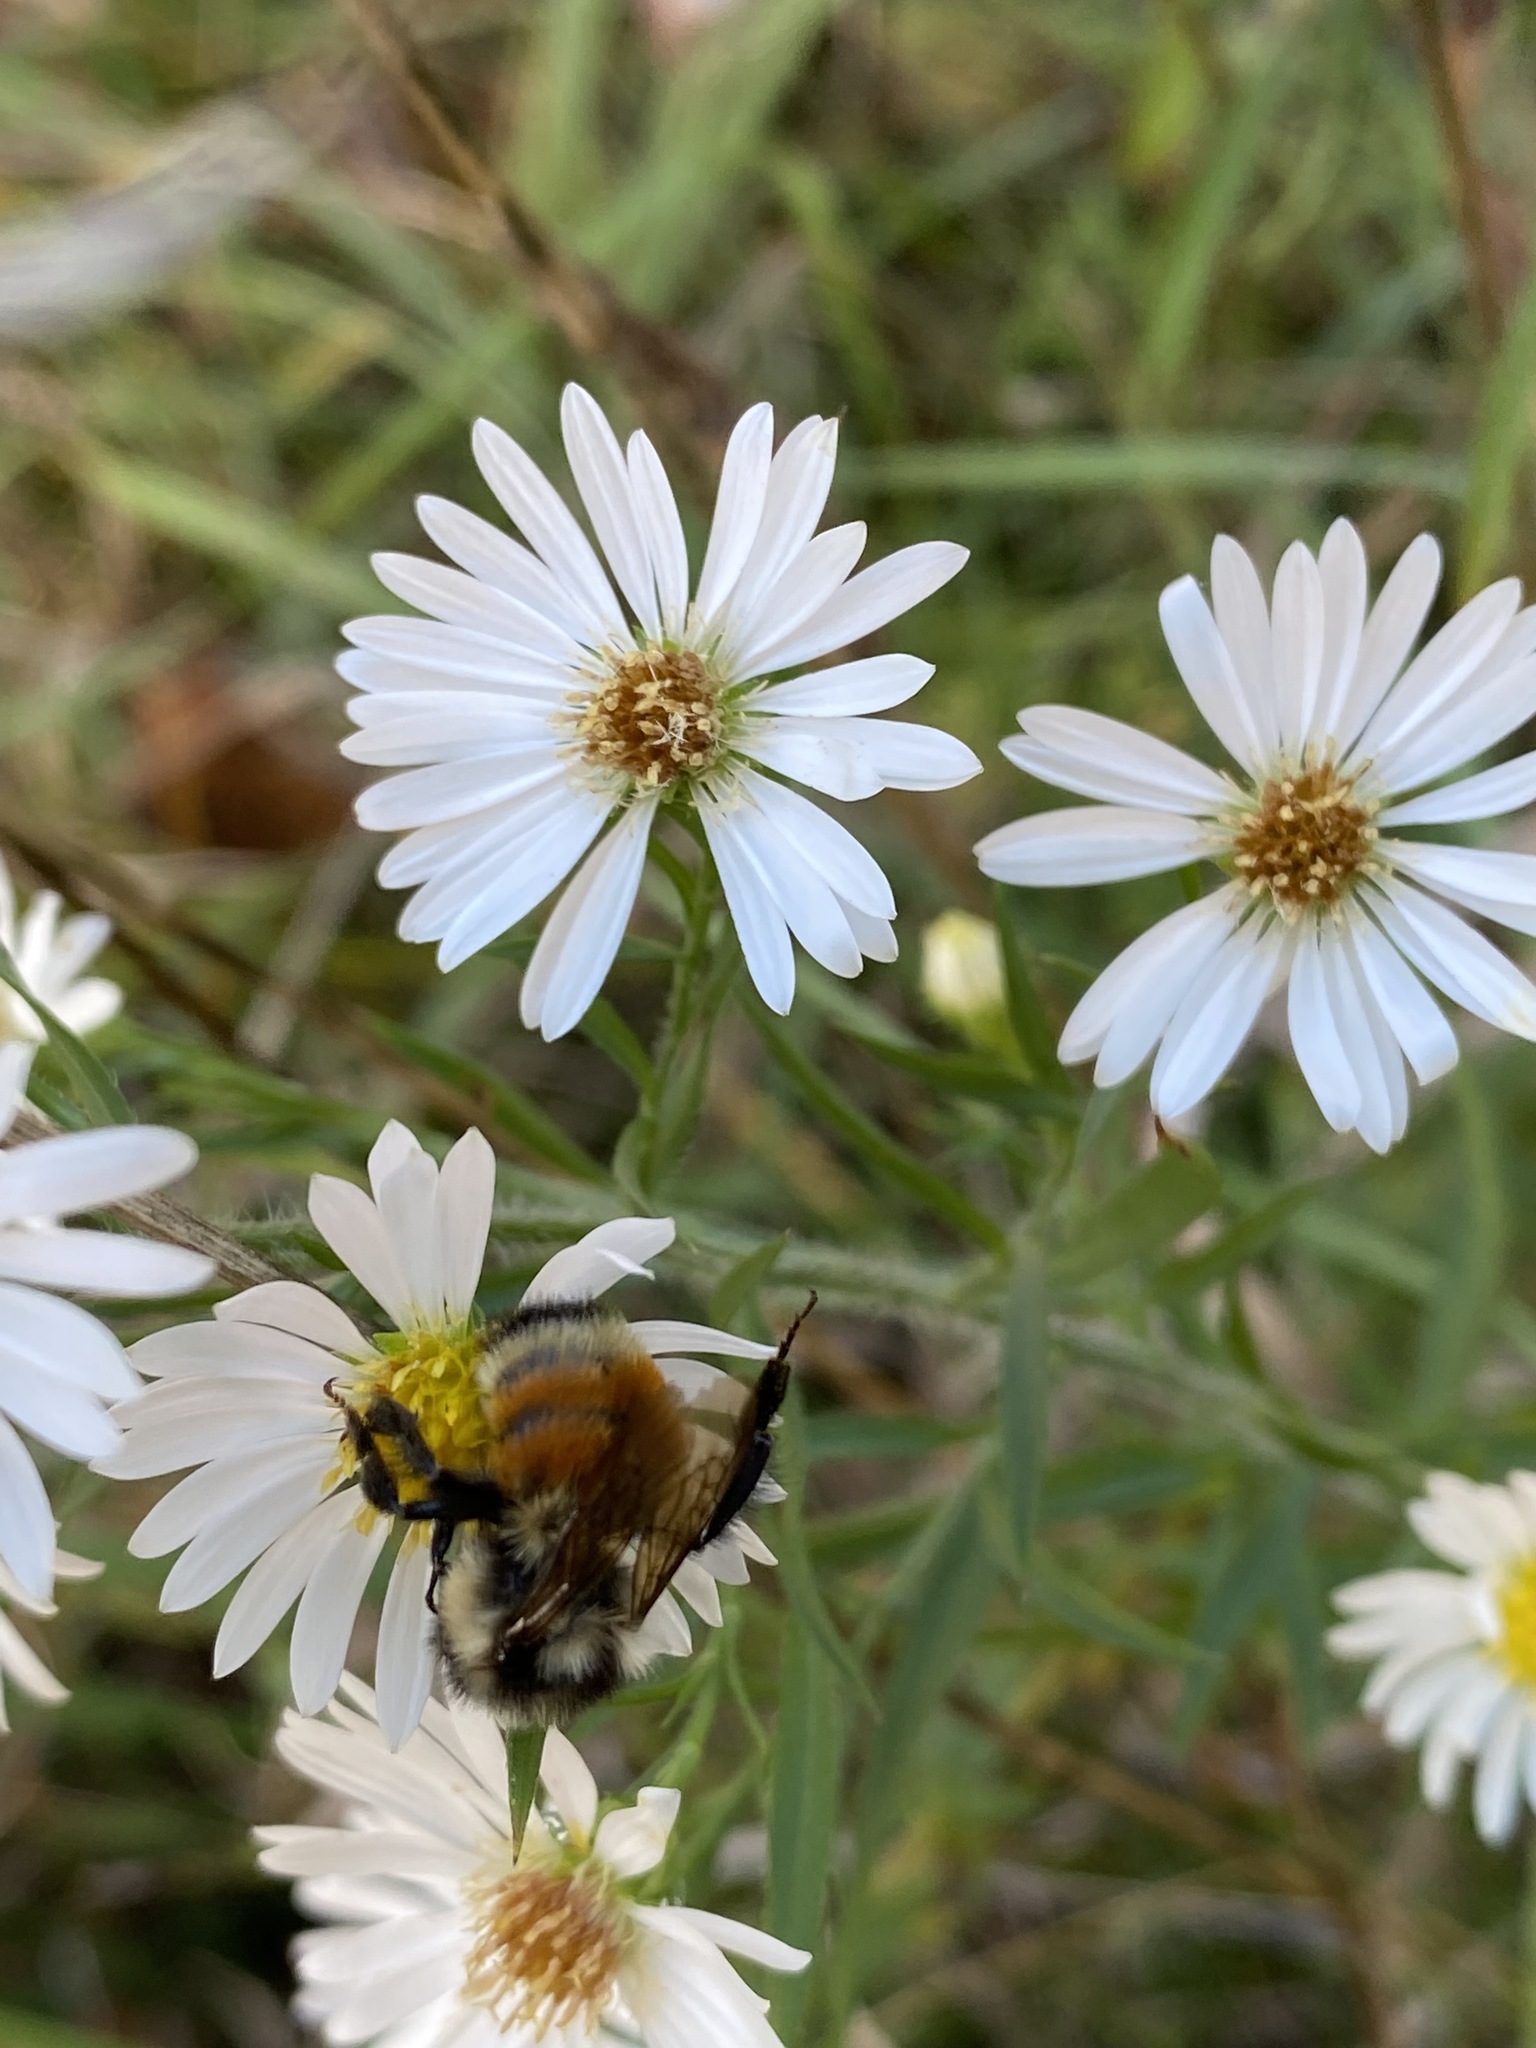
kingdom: Animalia
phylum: Arthropoda
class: Insecta
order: Hymenoptera
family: Apidae
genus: Bombus
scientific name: Bombus ternarius
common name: Tri-colored bumble bee
